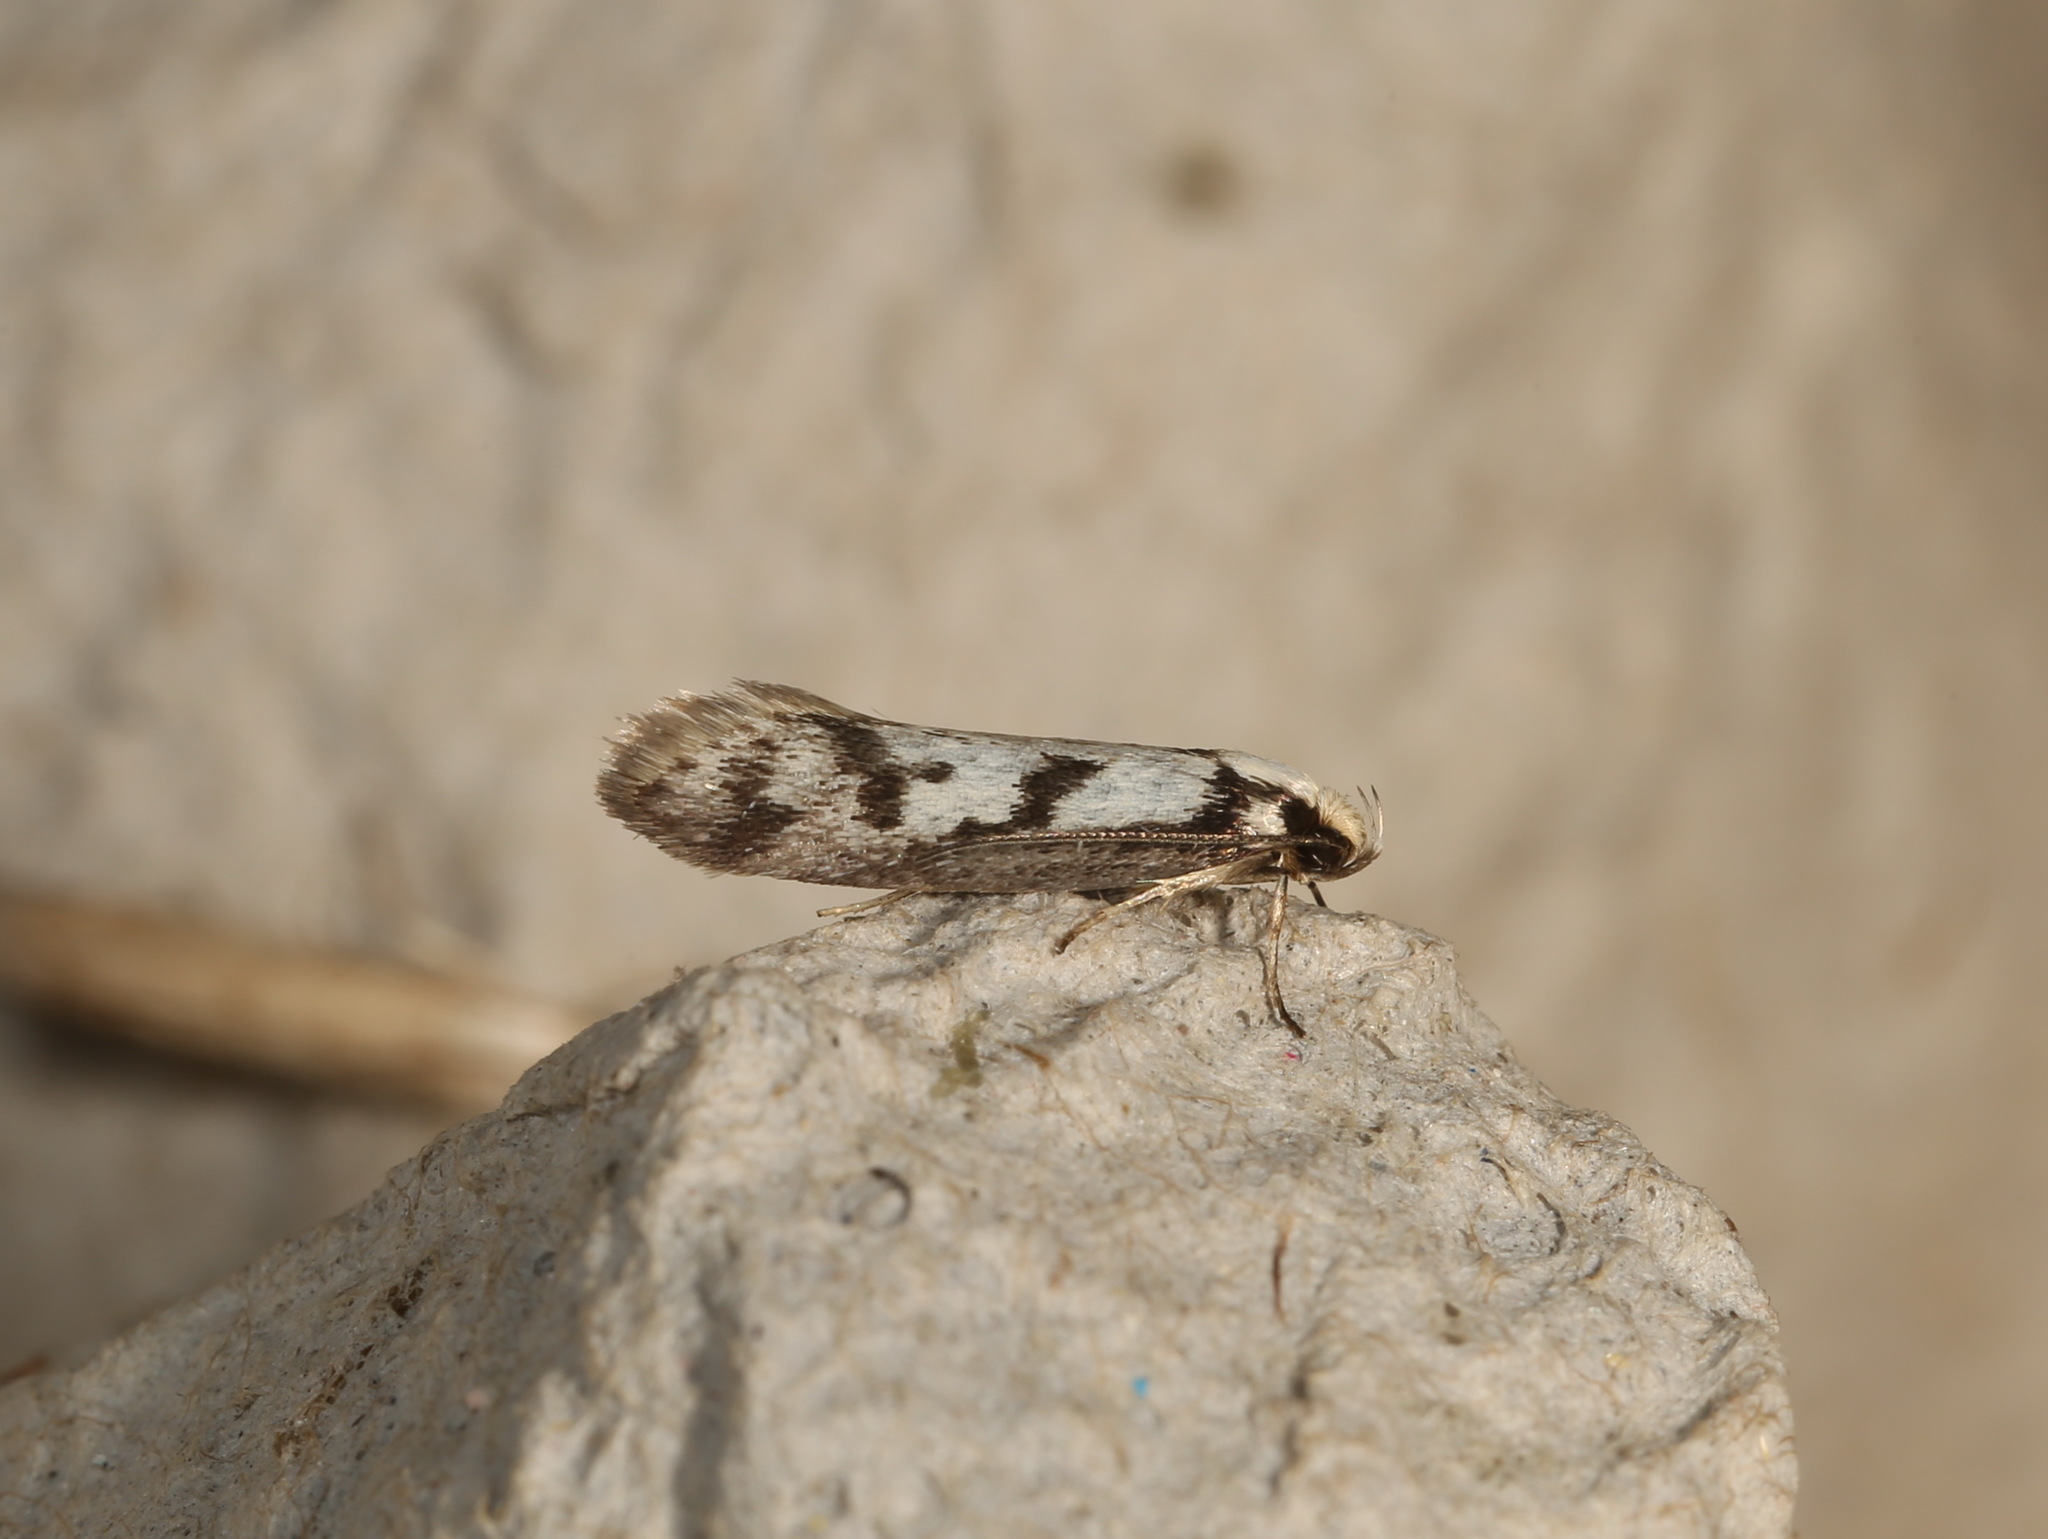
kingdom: Animalia
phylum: Arthropoda
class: Insecta
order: Lepidoptera
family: Oecophoridae
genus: Eusemocosma
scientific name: Eusemocosma pruinosa
